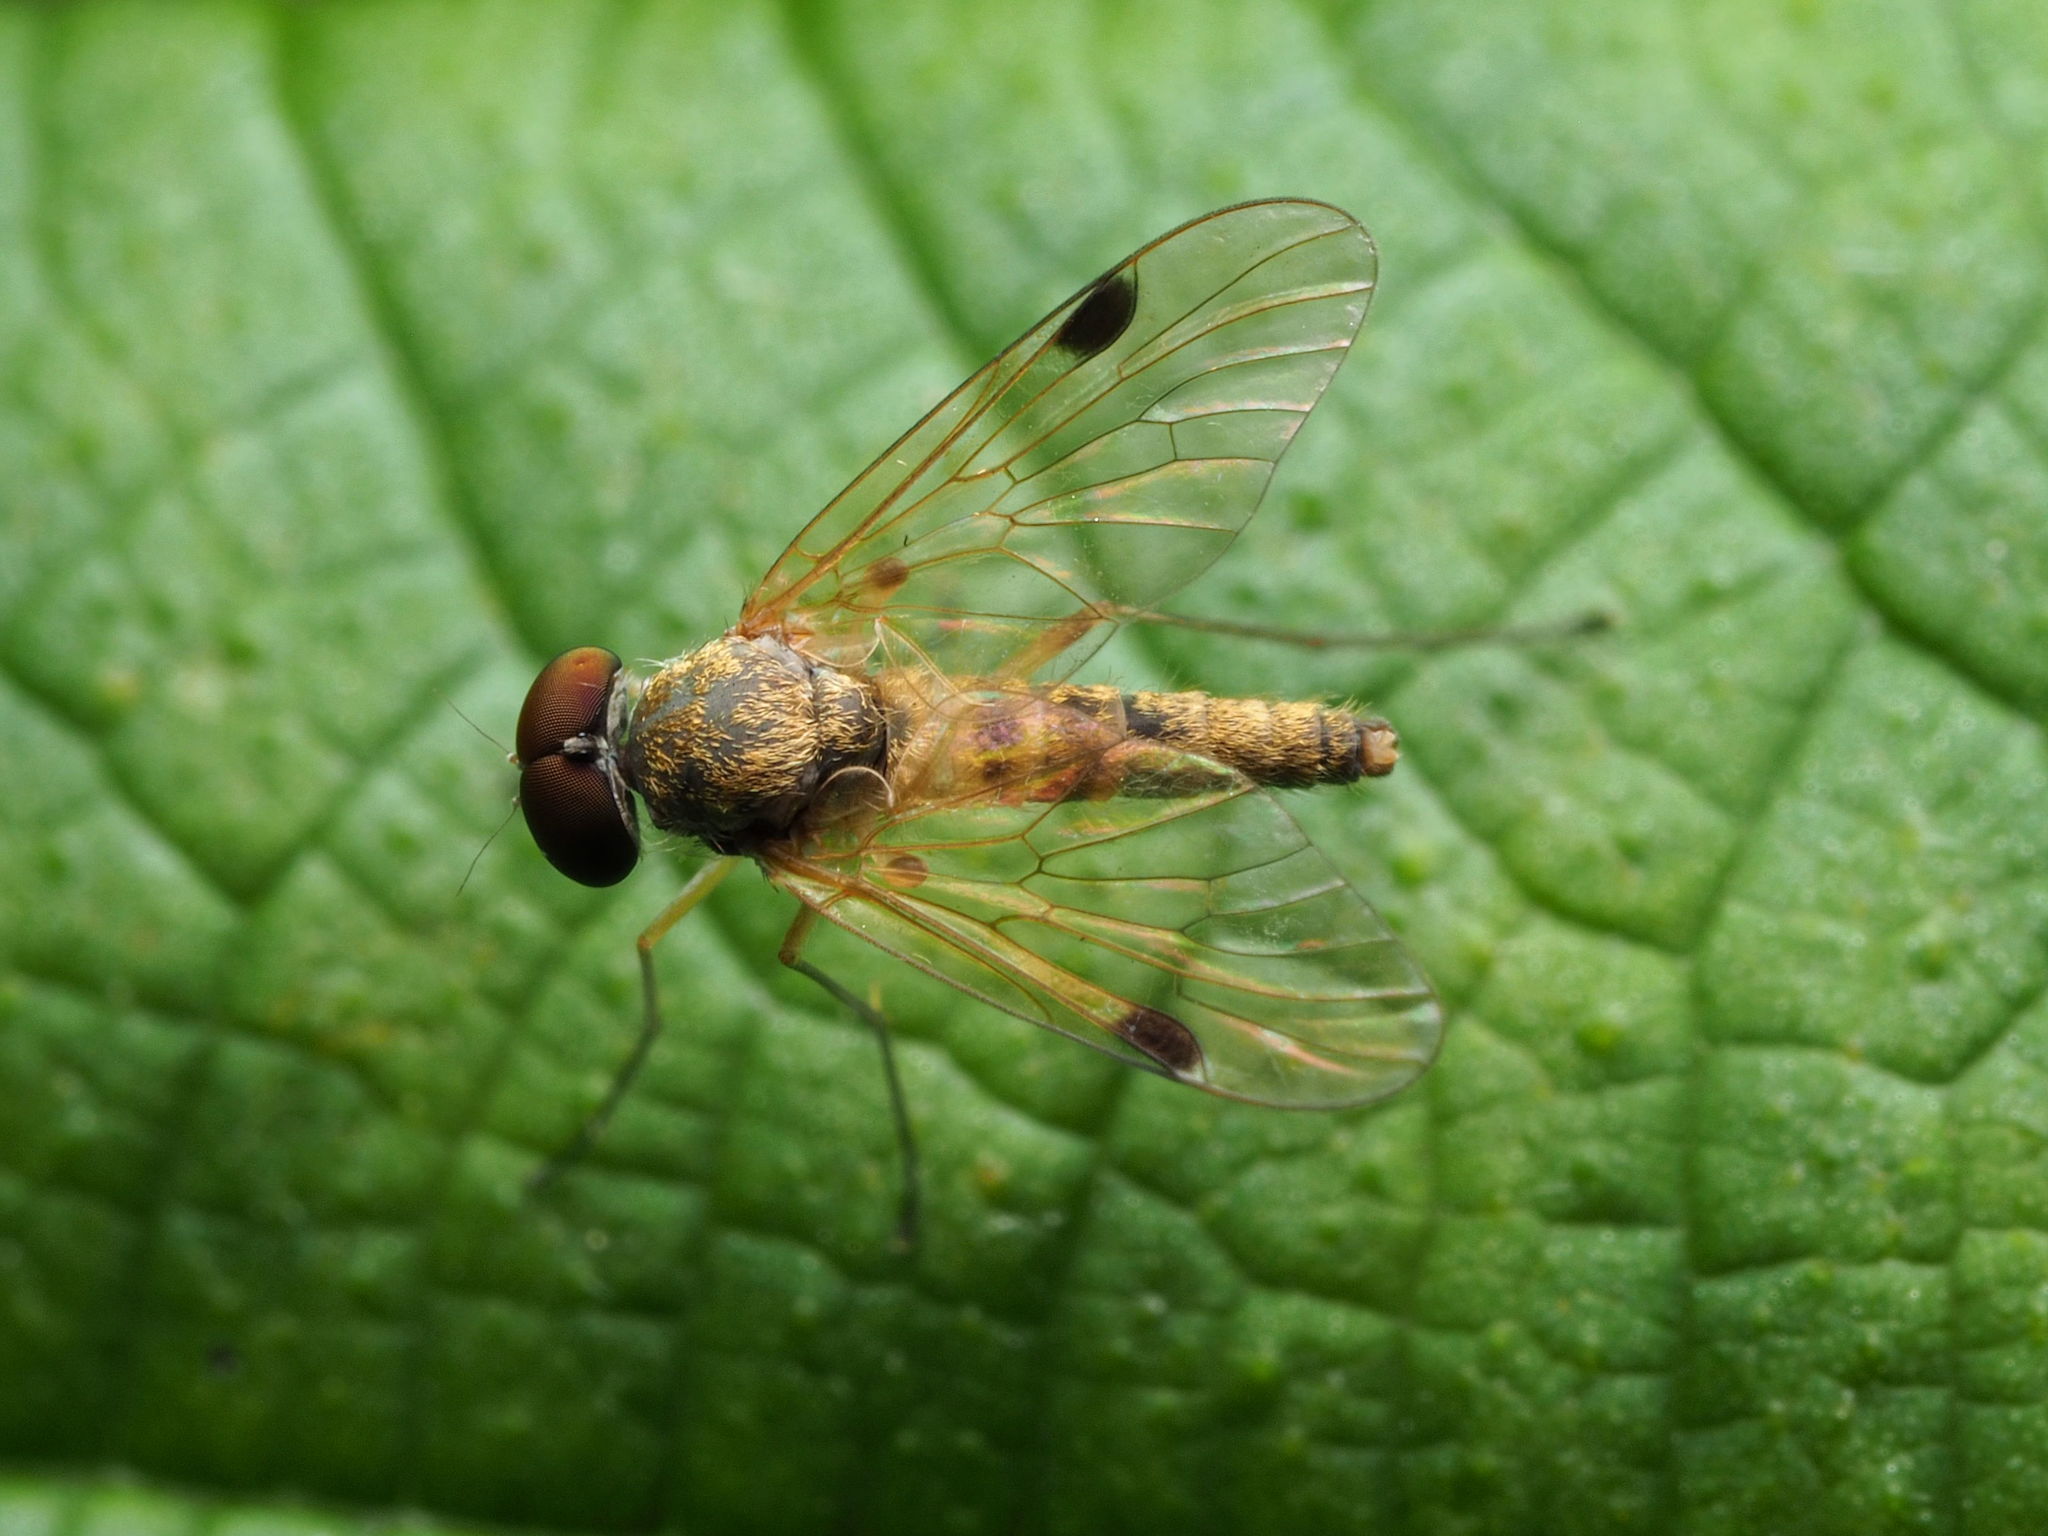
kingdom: Animalia
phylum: Arthropoda
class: Insecta
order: Diptera
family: Rhagionidae
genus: Chrysopilus
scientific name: Chrysopilus modestus
